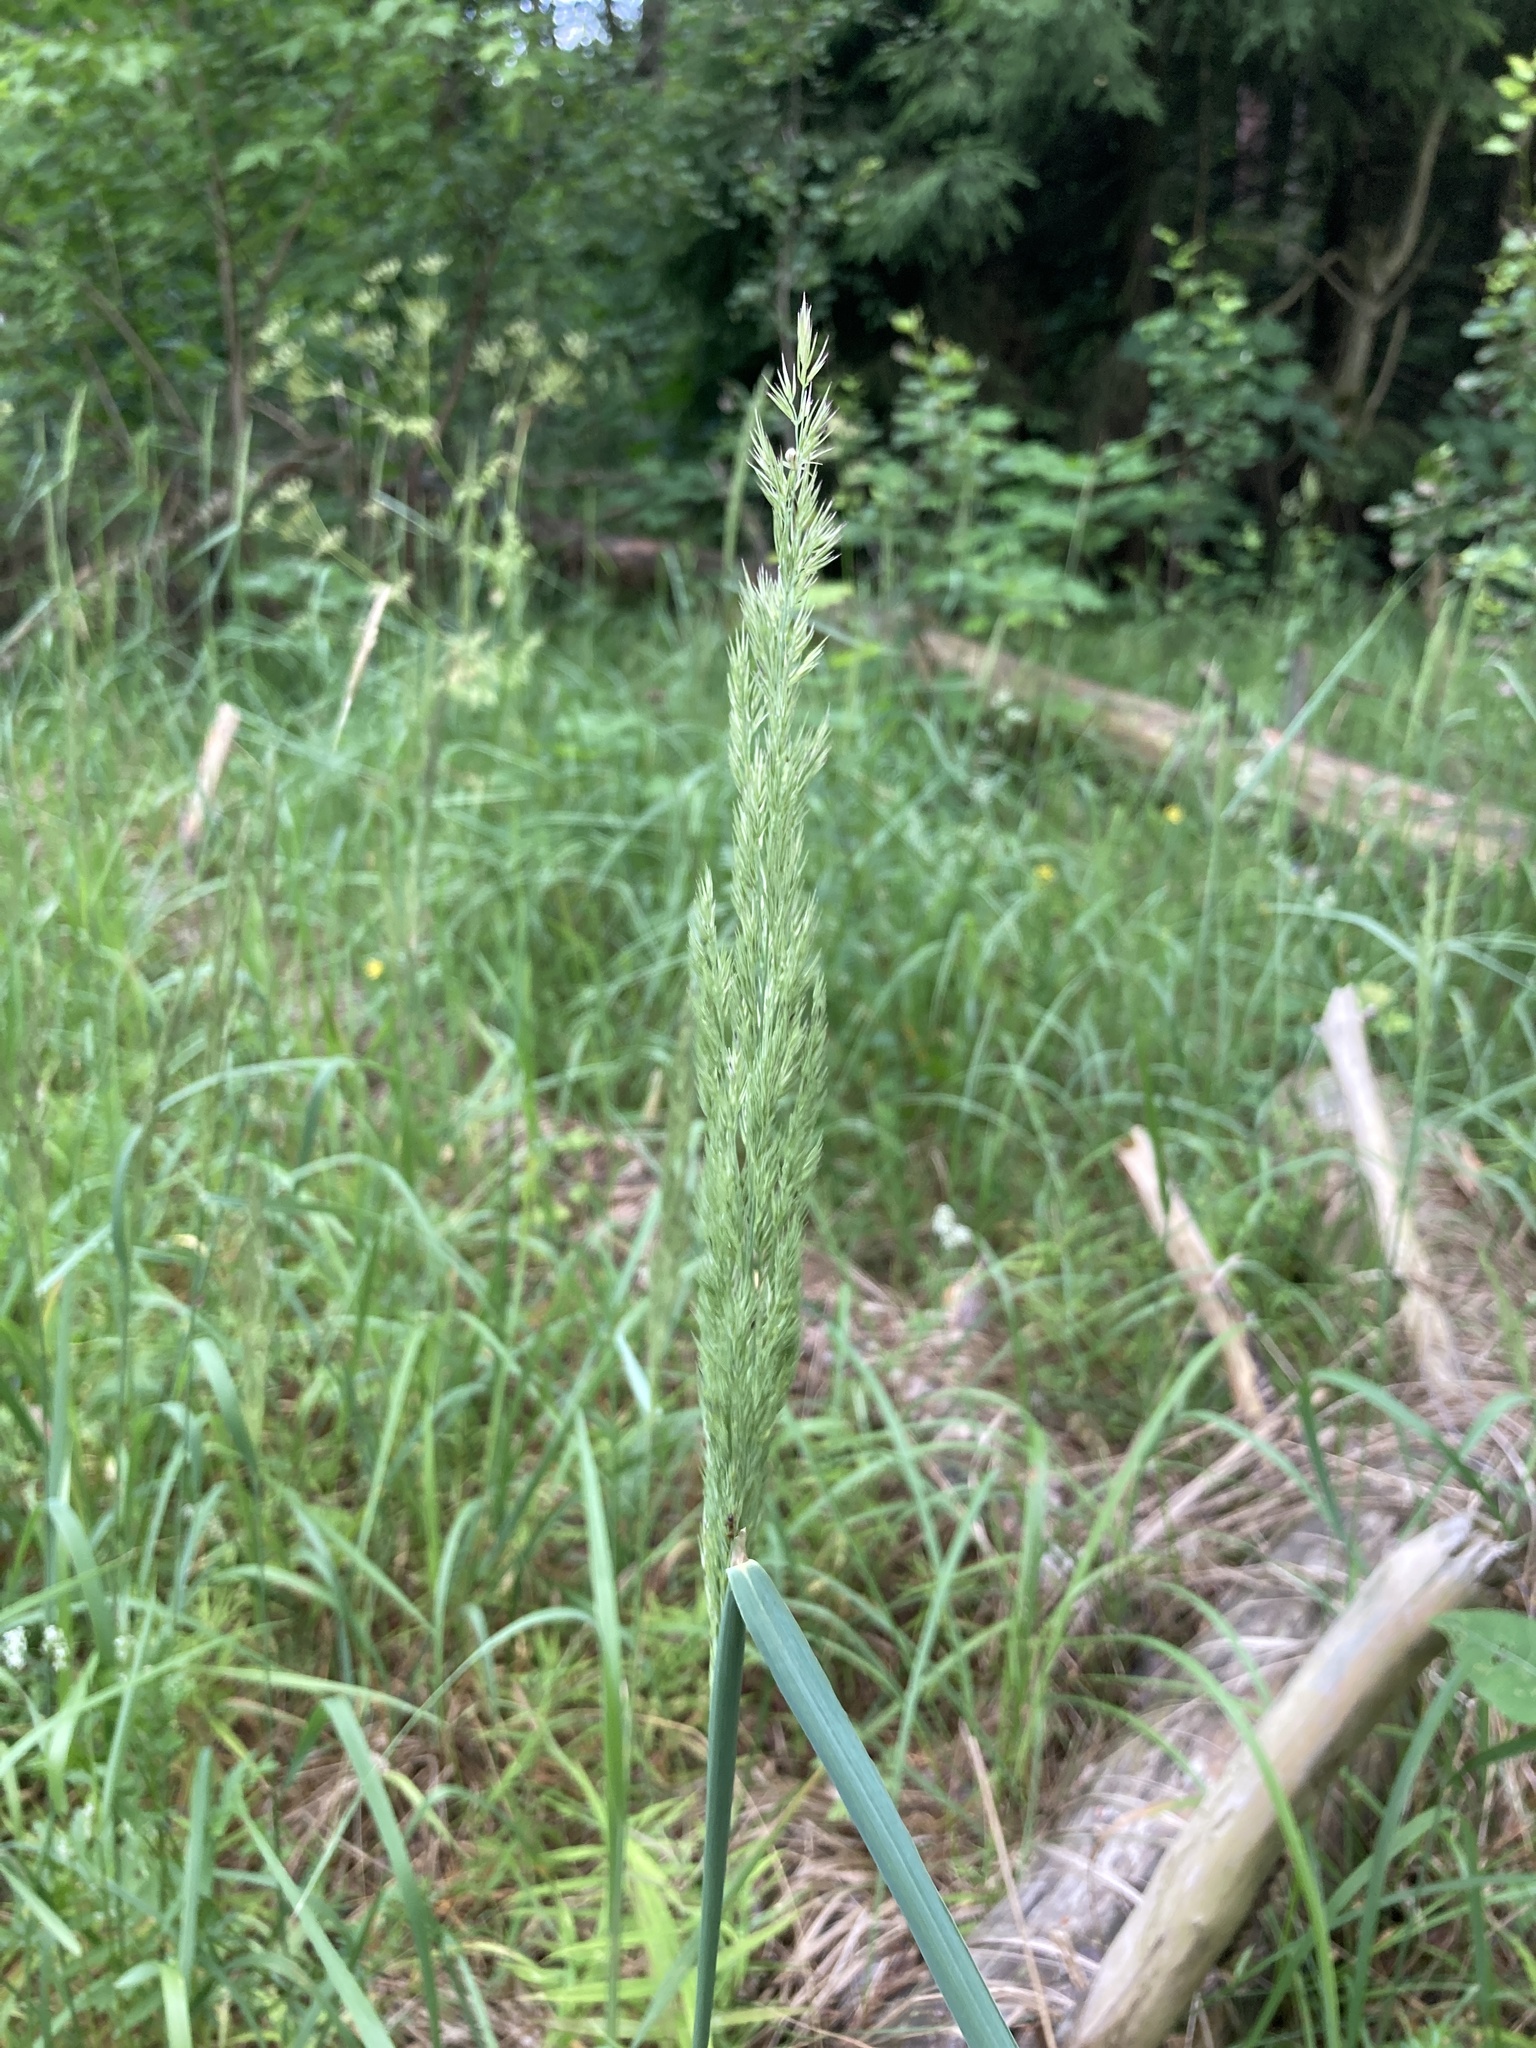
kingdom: Plantae
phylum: Tracheophyta
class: Liliopsida
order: Poales
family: Poaceae
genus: Calamagrostis
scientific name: Calamagrostis epigejos
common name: Wood small-reed
